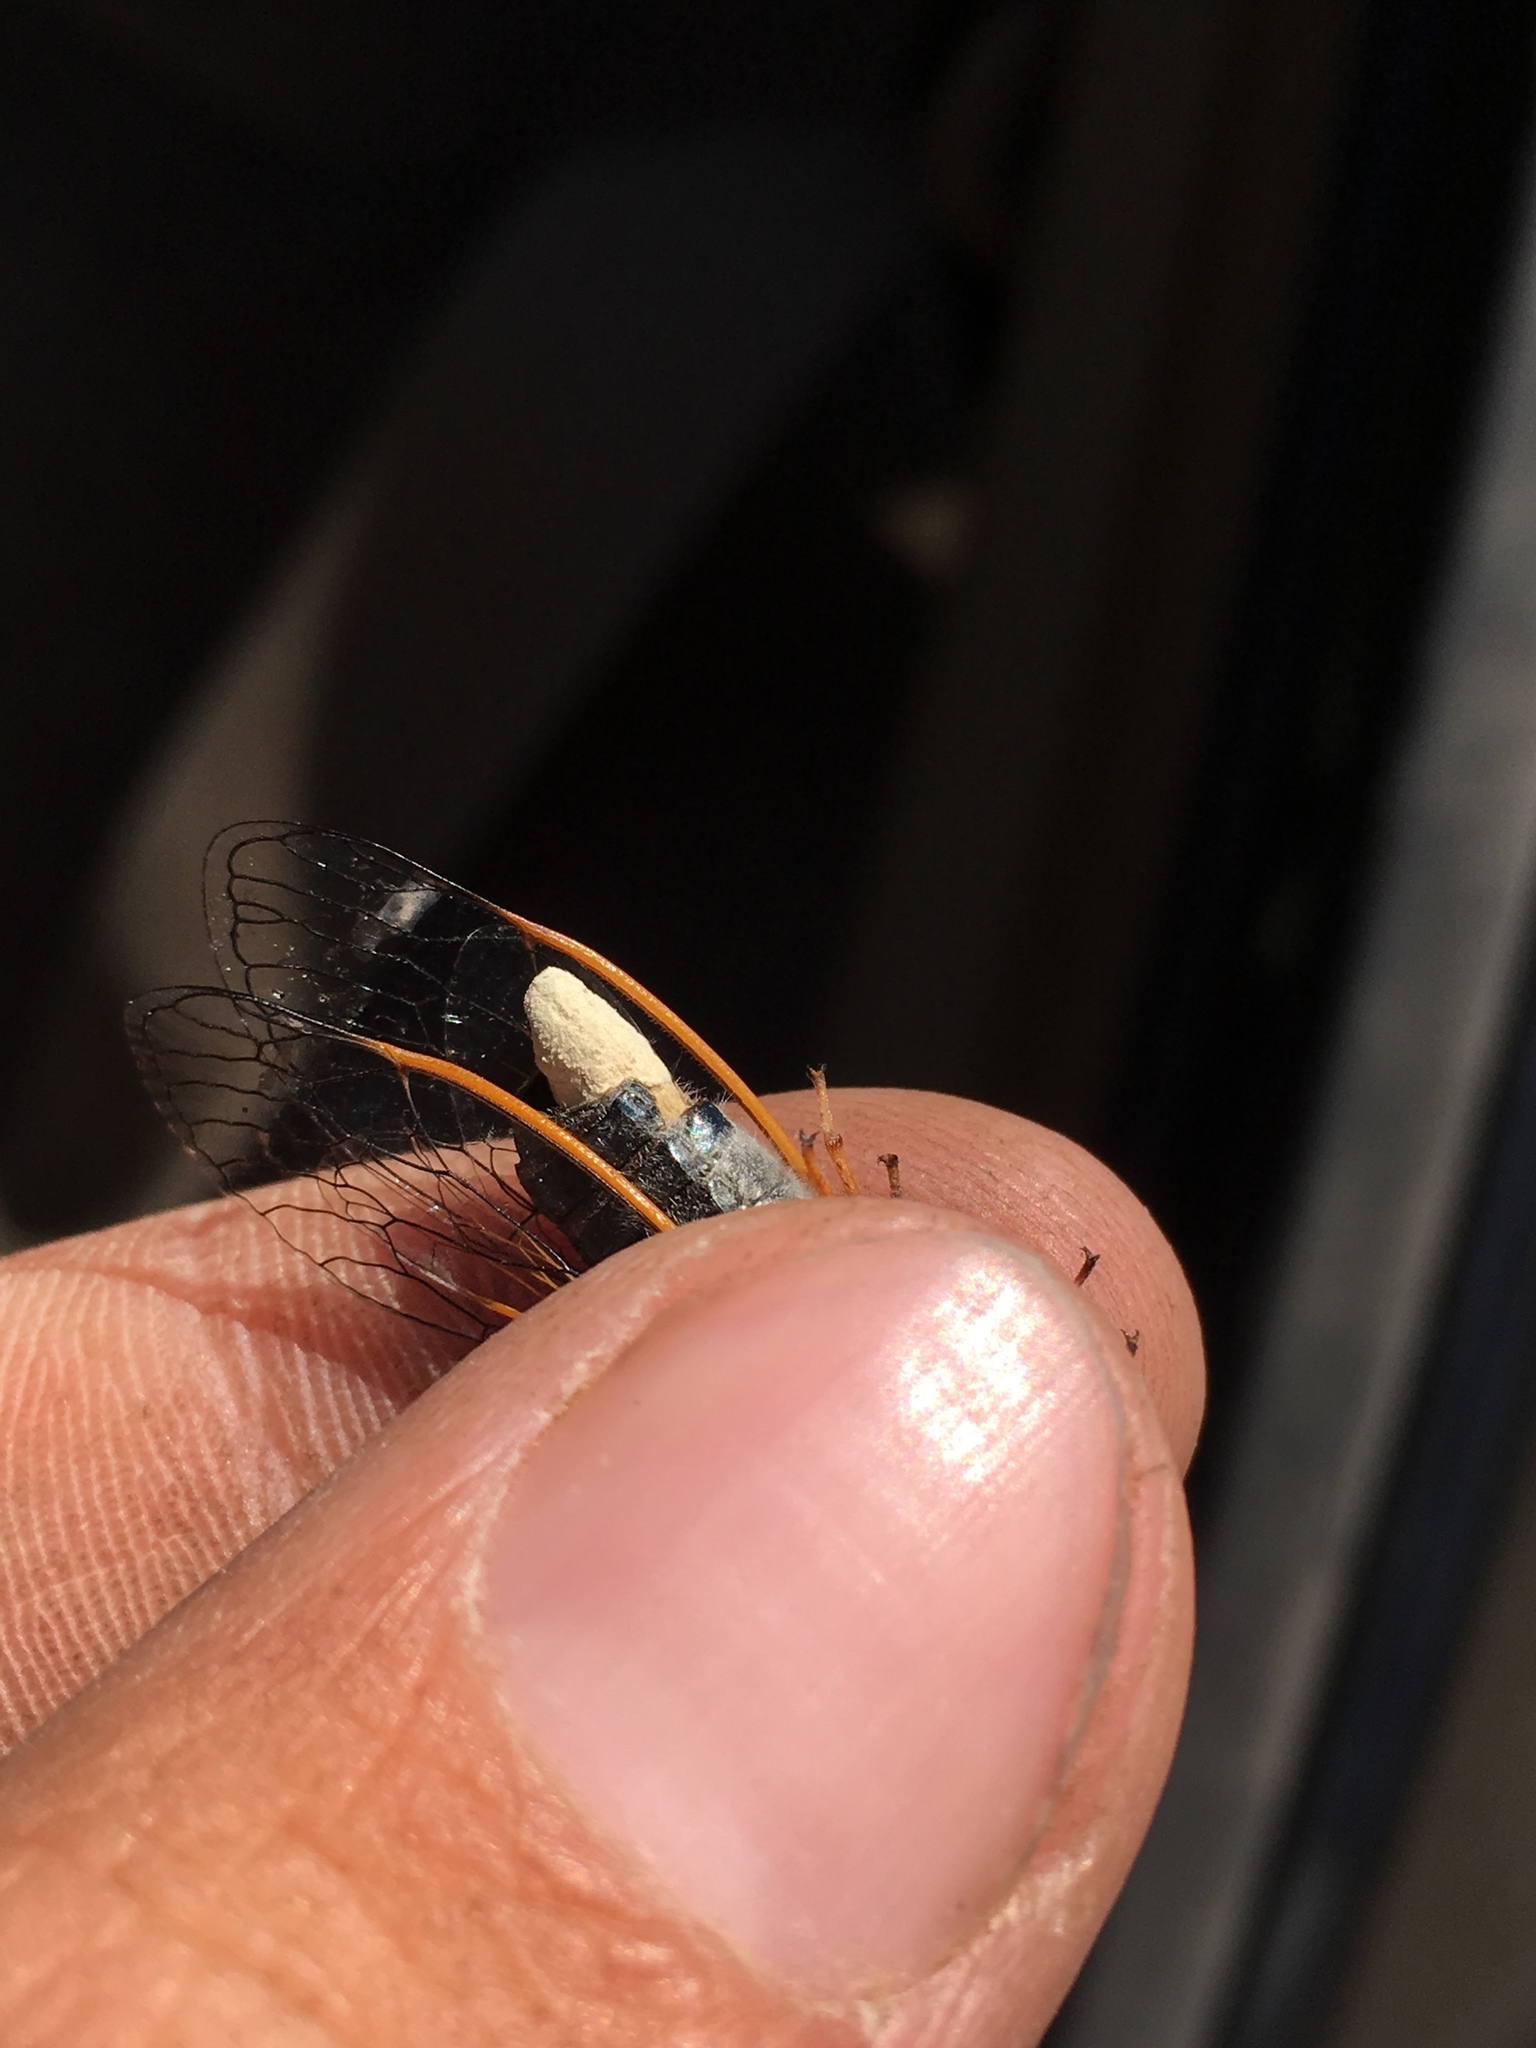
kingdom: Fungi
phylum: Entomophthoromycota
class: Entomophthoromycetes
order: Entomophthorales
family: Entomophthoraceae
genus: Massospora
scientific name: Massospora levispora
